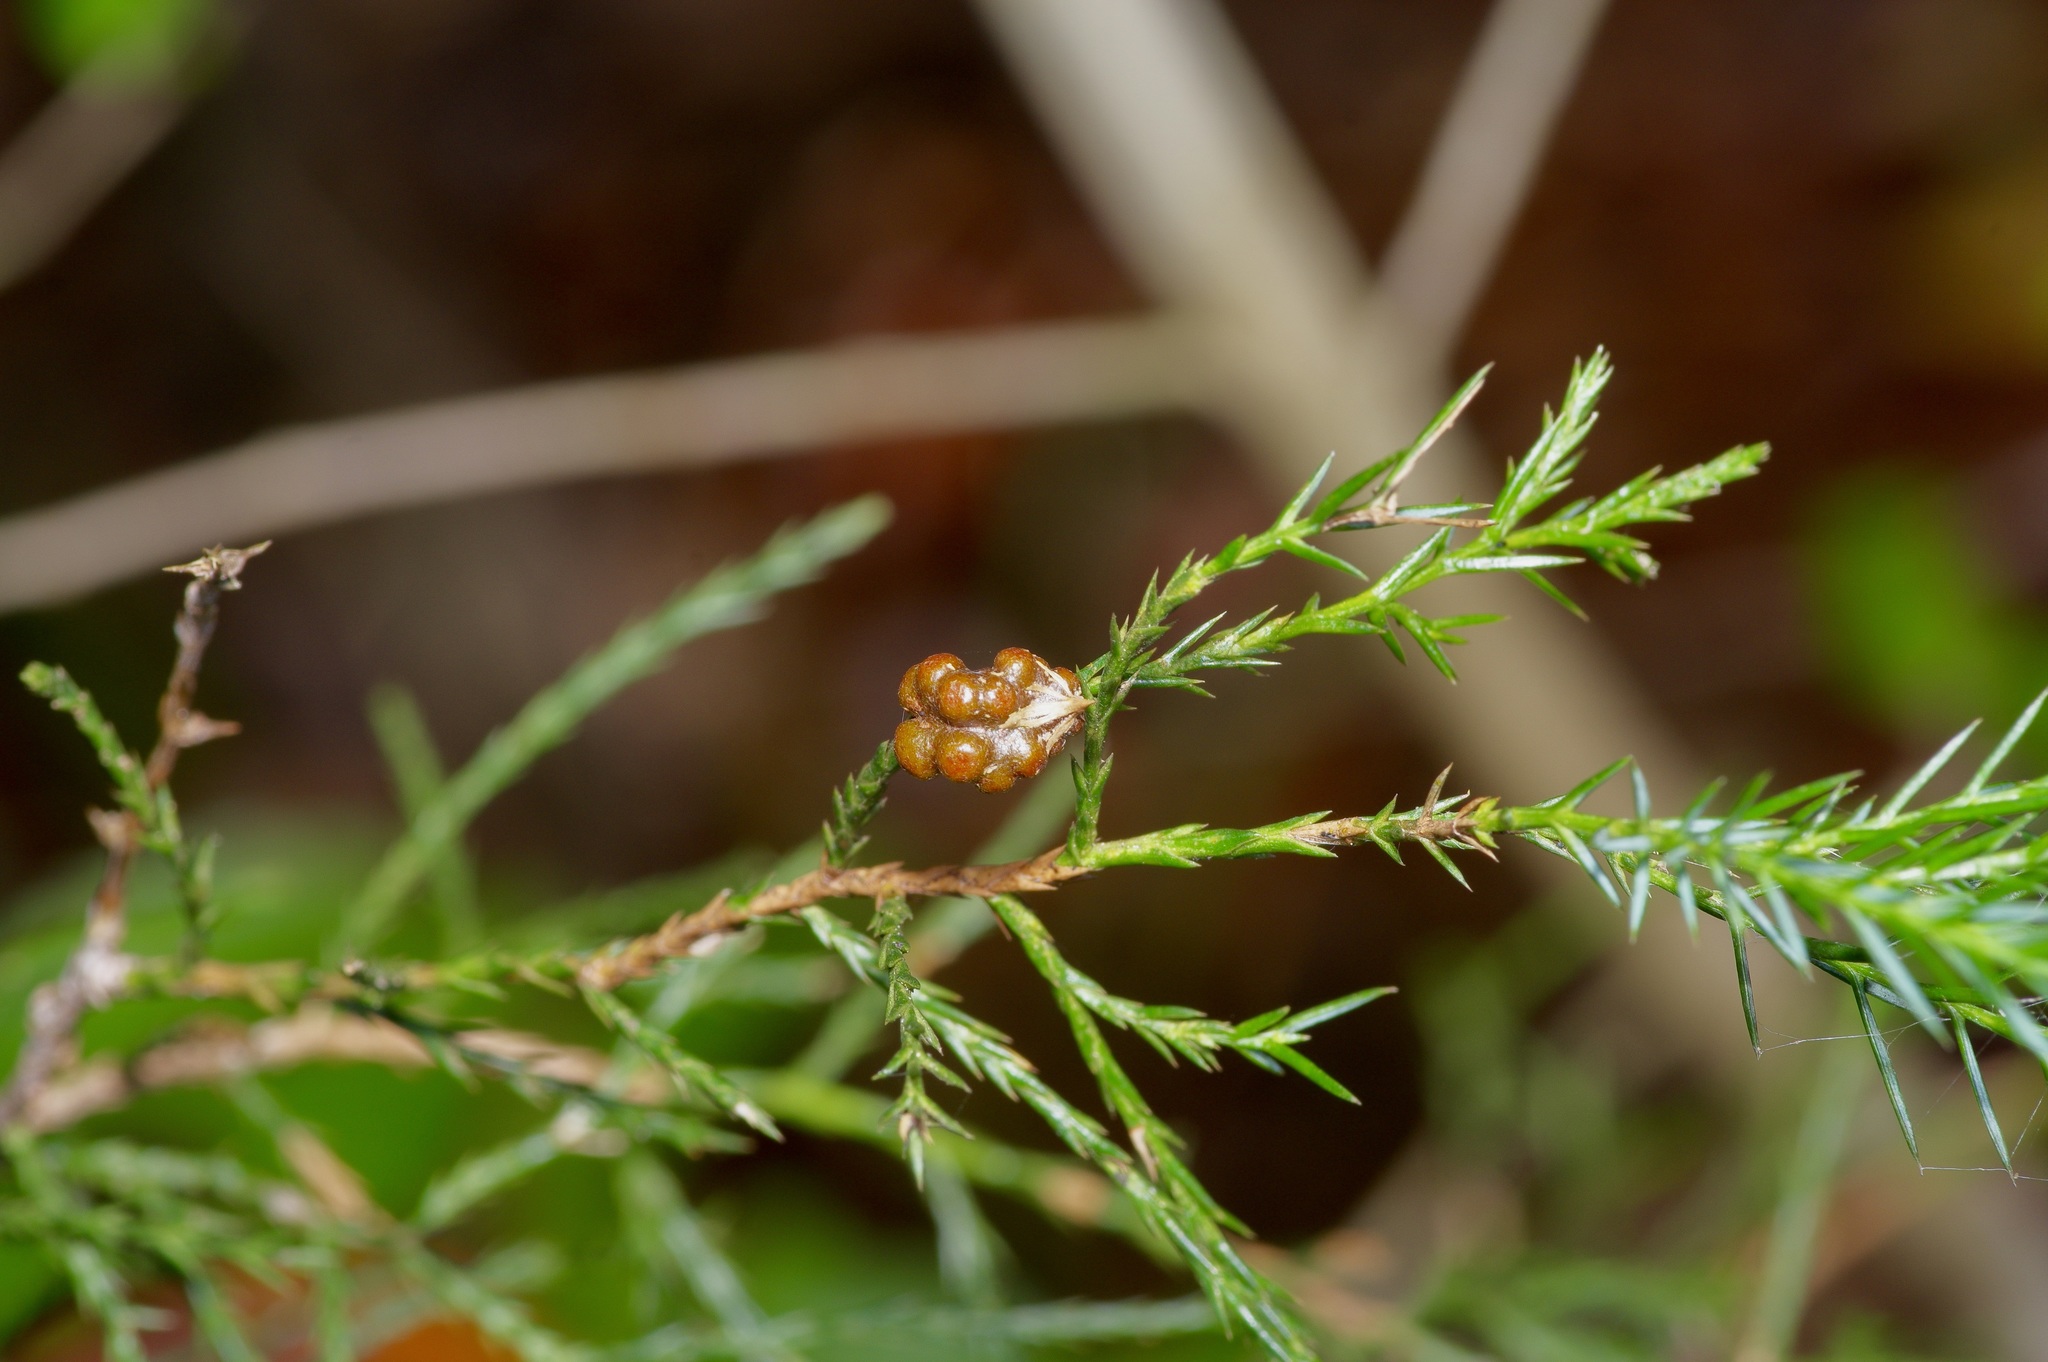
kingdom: Fungi
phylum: Basidiomycota
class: Pucciniomycetes
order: Pucciniales
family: Gymnosporangiaceae
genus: Gymnosporangium
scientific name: Gymnosporangium juniperi-virginianae
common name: Juniper-apple rust
